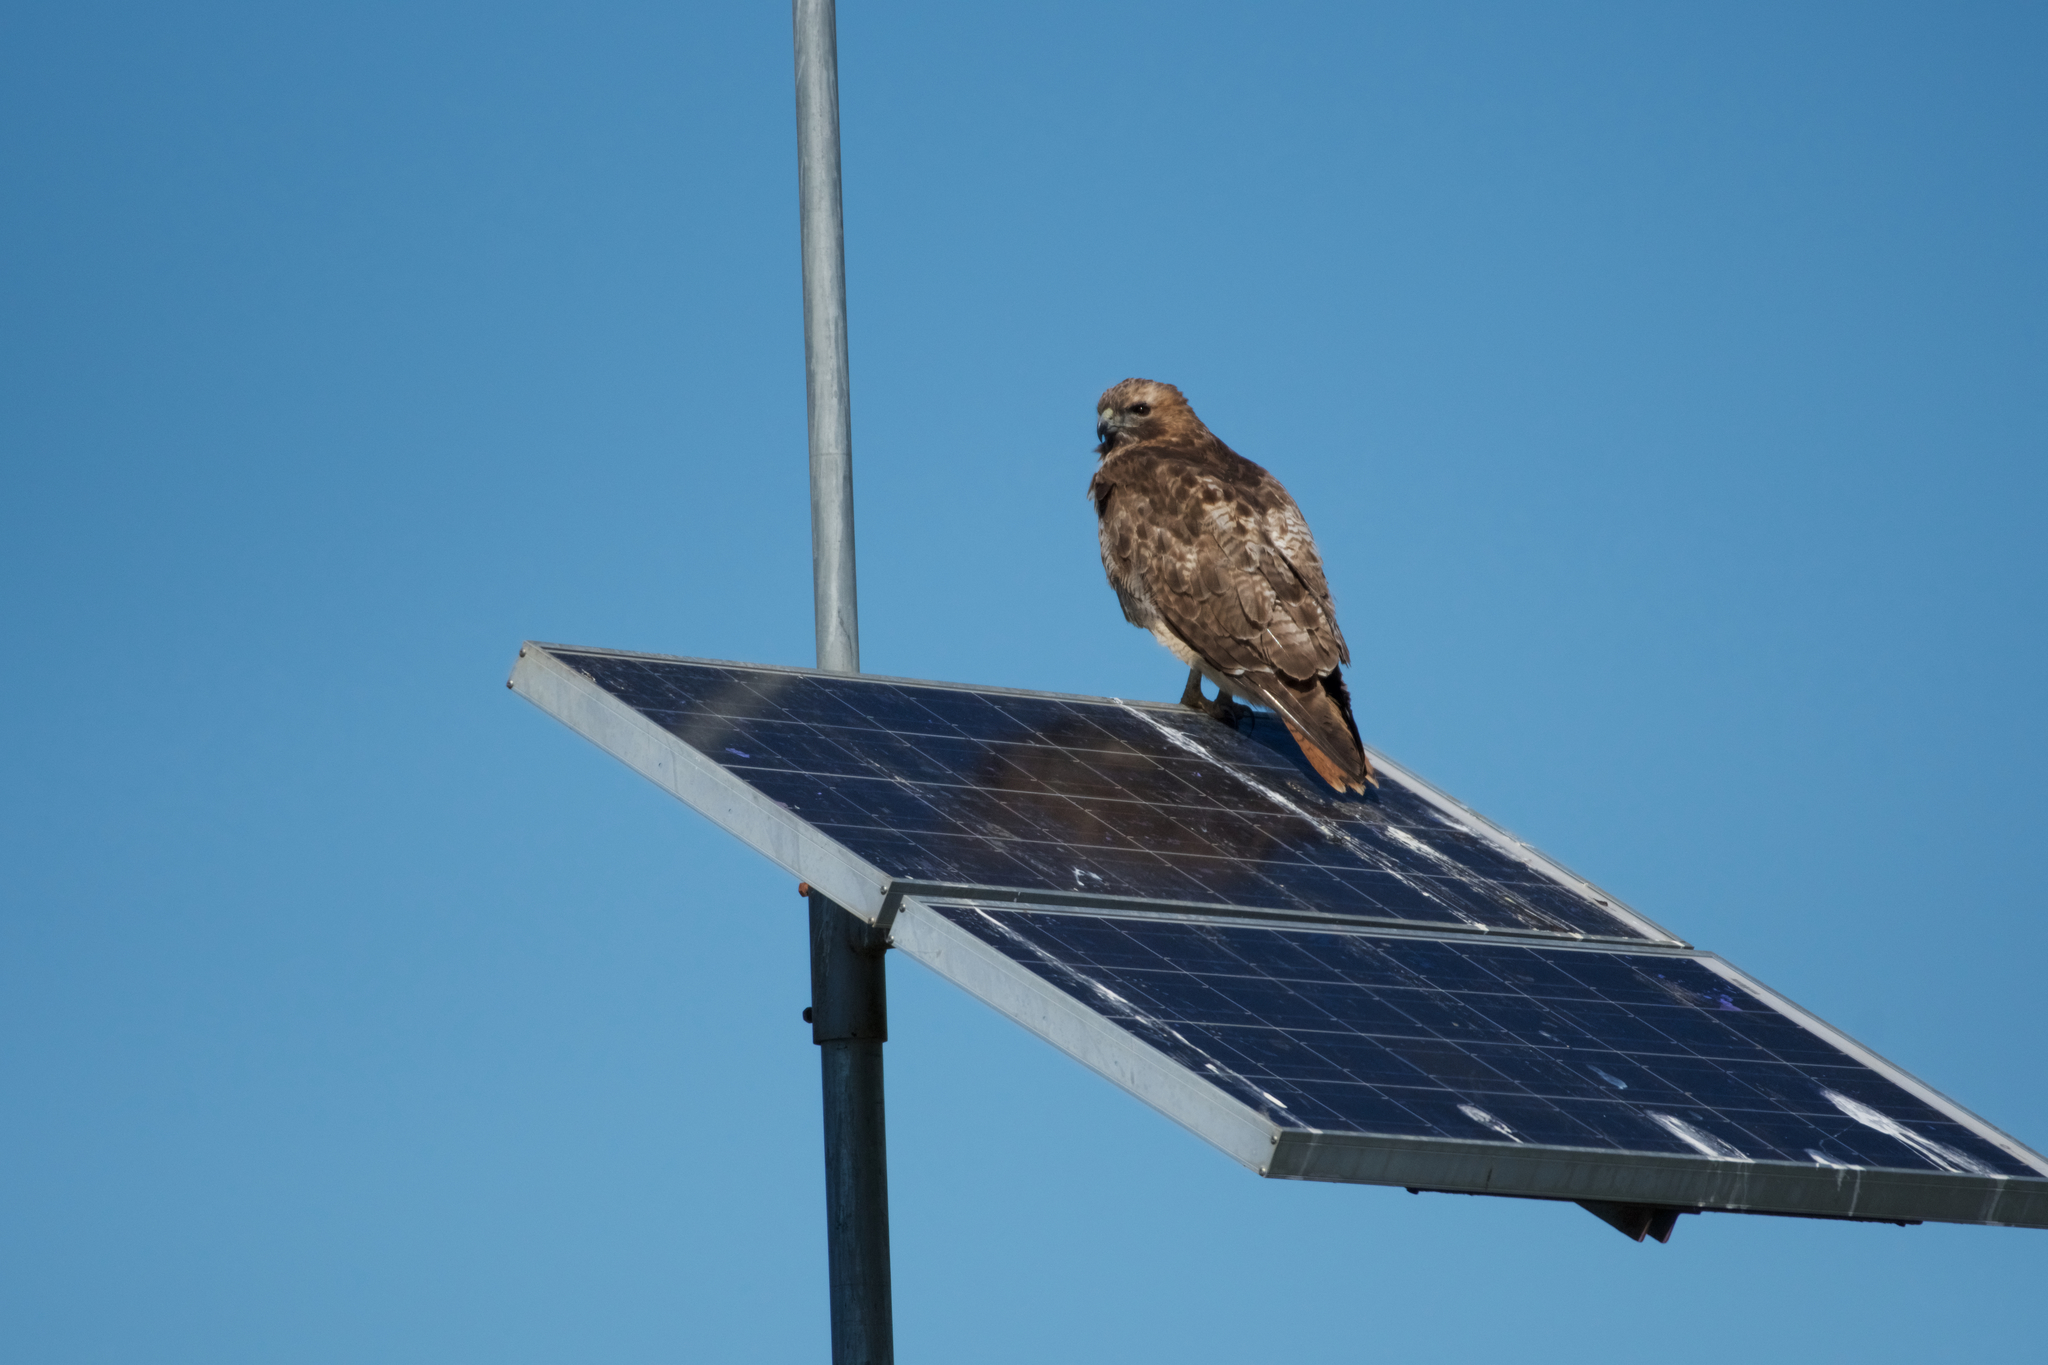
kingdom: Animalia
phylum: Chordata
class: Aves
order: Accipitriformes
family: Accipitridae
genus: Buteo
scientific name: Buteo jamaicensis
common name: Red-tailed hawk
